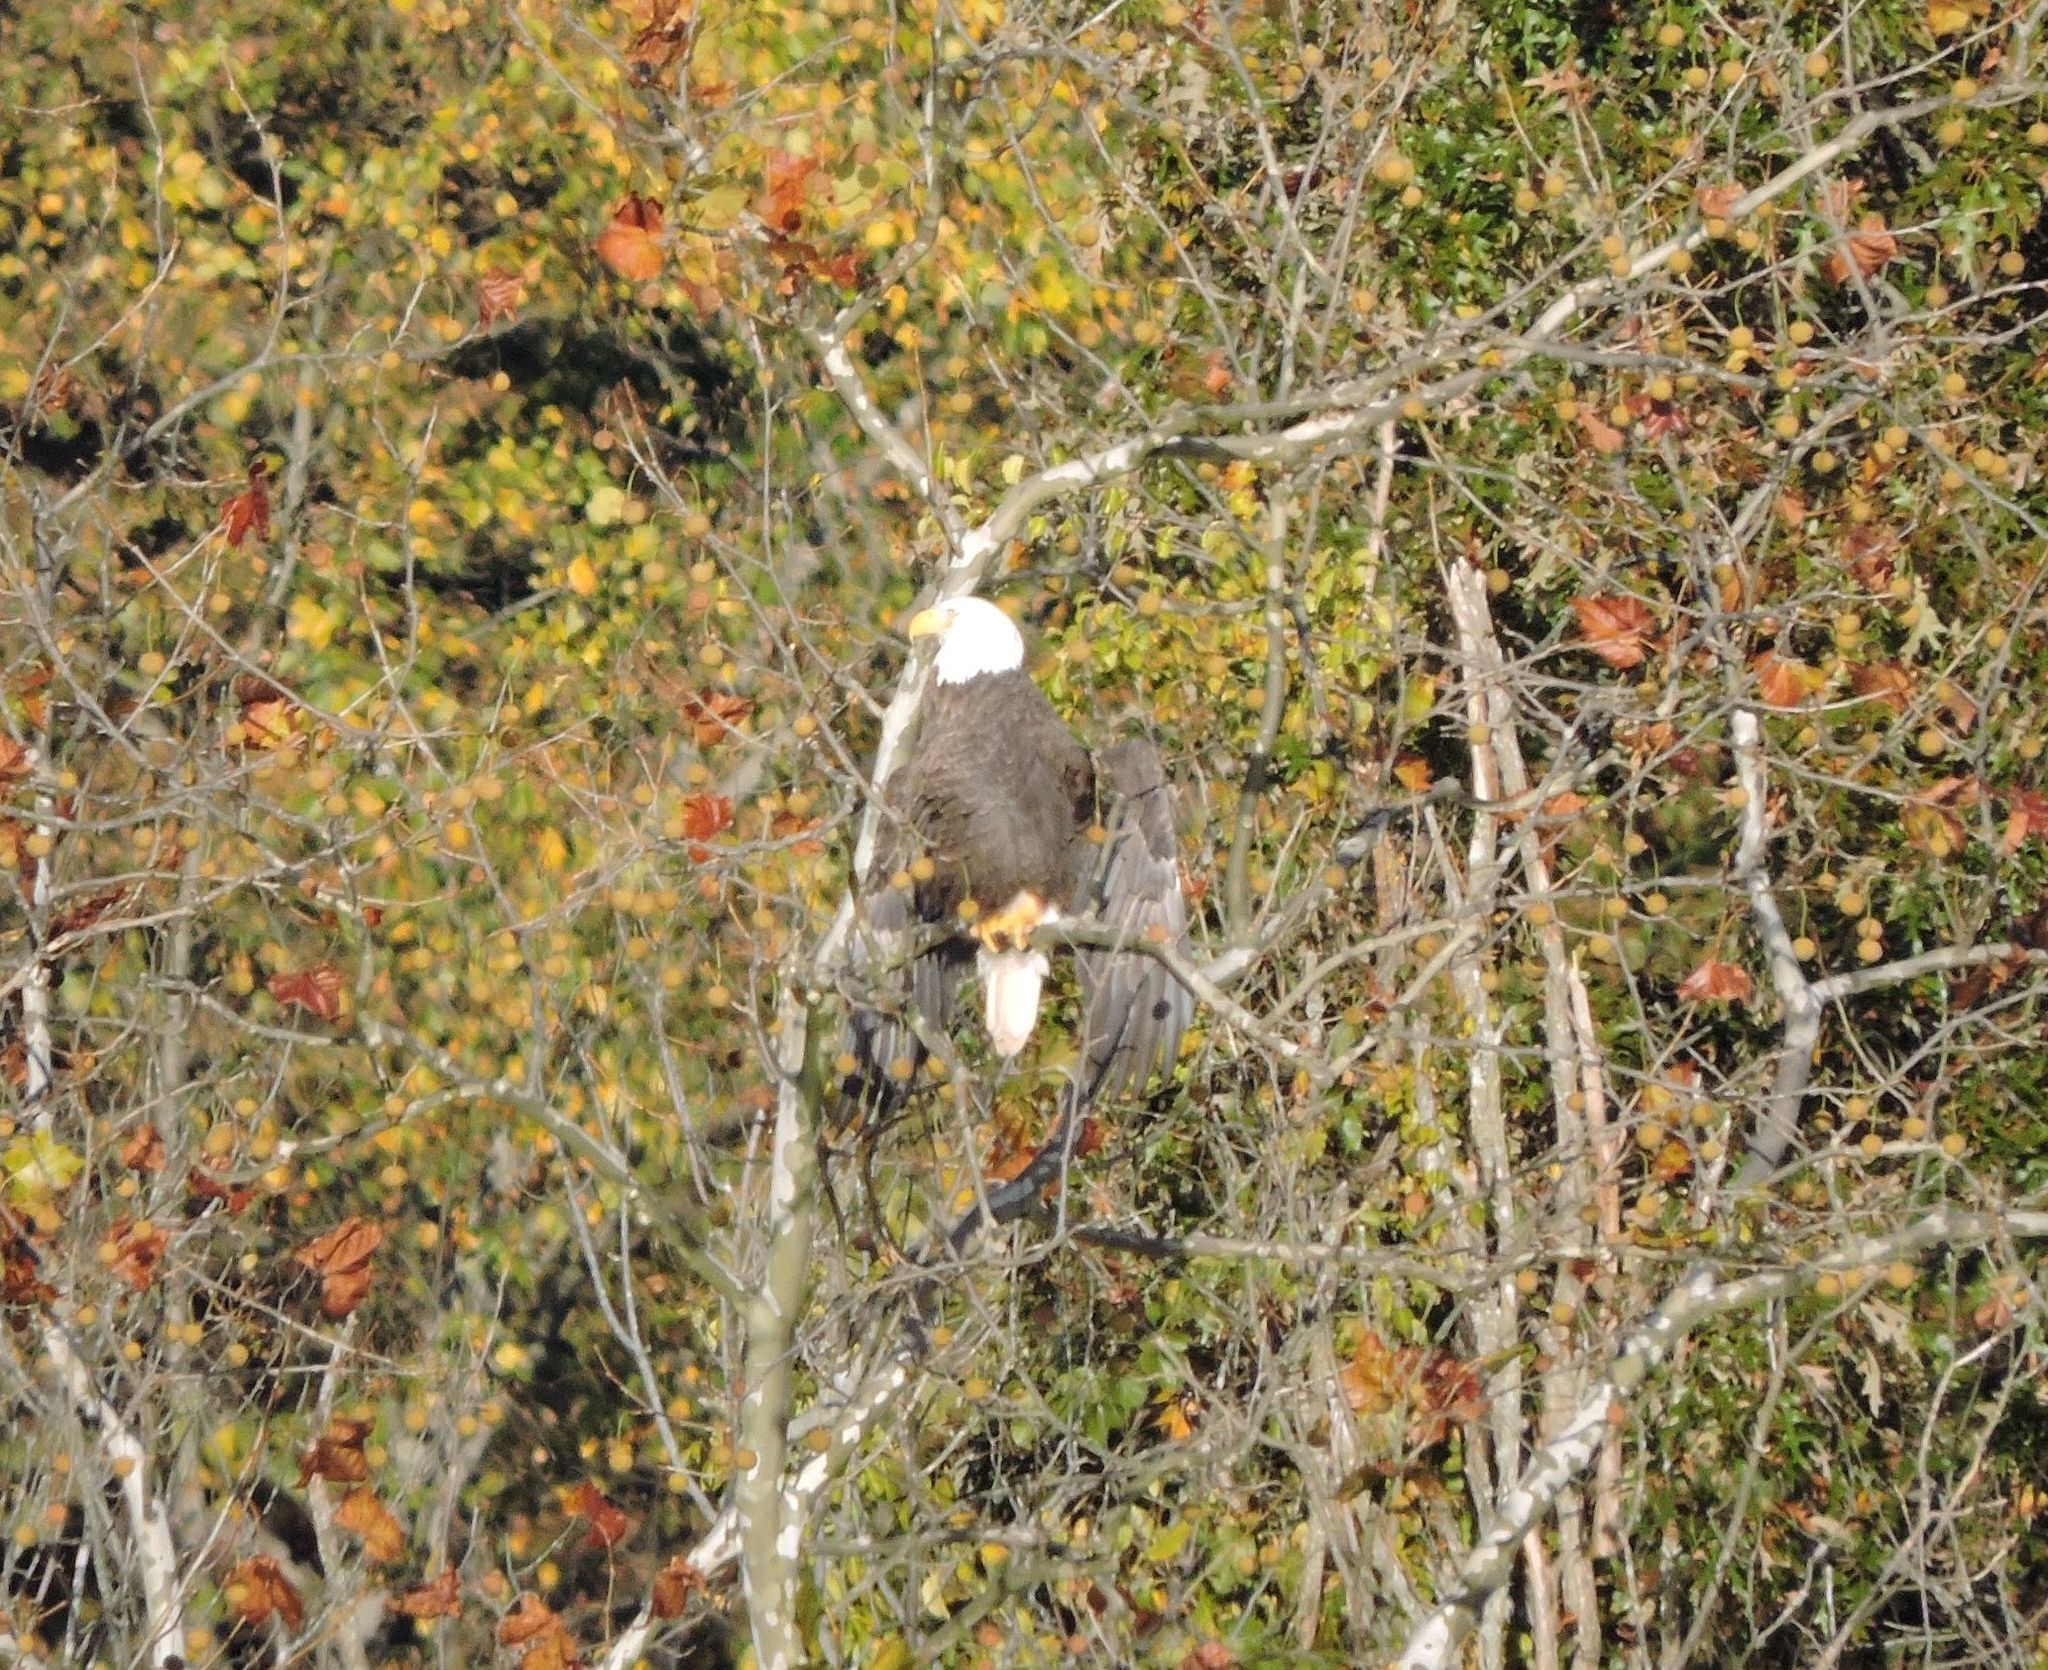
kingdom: Animalia
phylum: Chordata
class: Aves
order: Accipitriformes
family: Accipitridae
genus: Haliaeetus
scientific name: Haliaeetus leucocephalus
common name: Bald eagle
